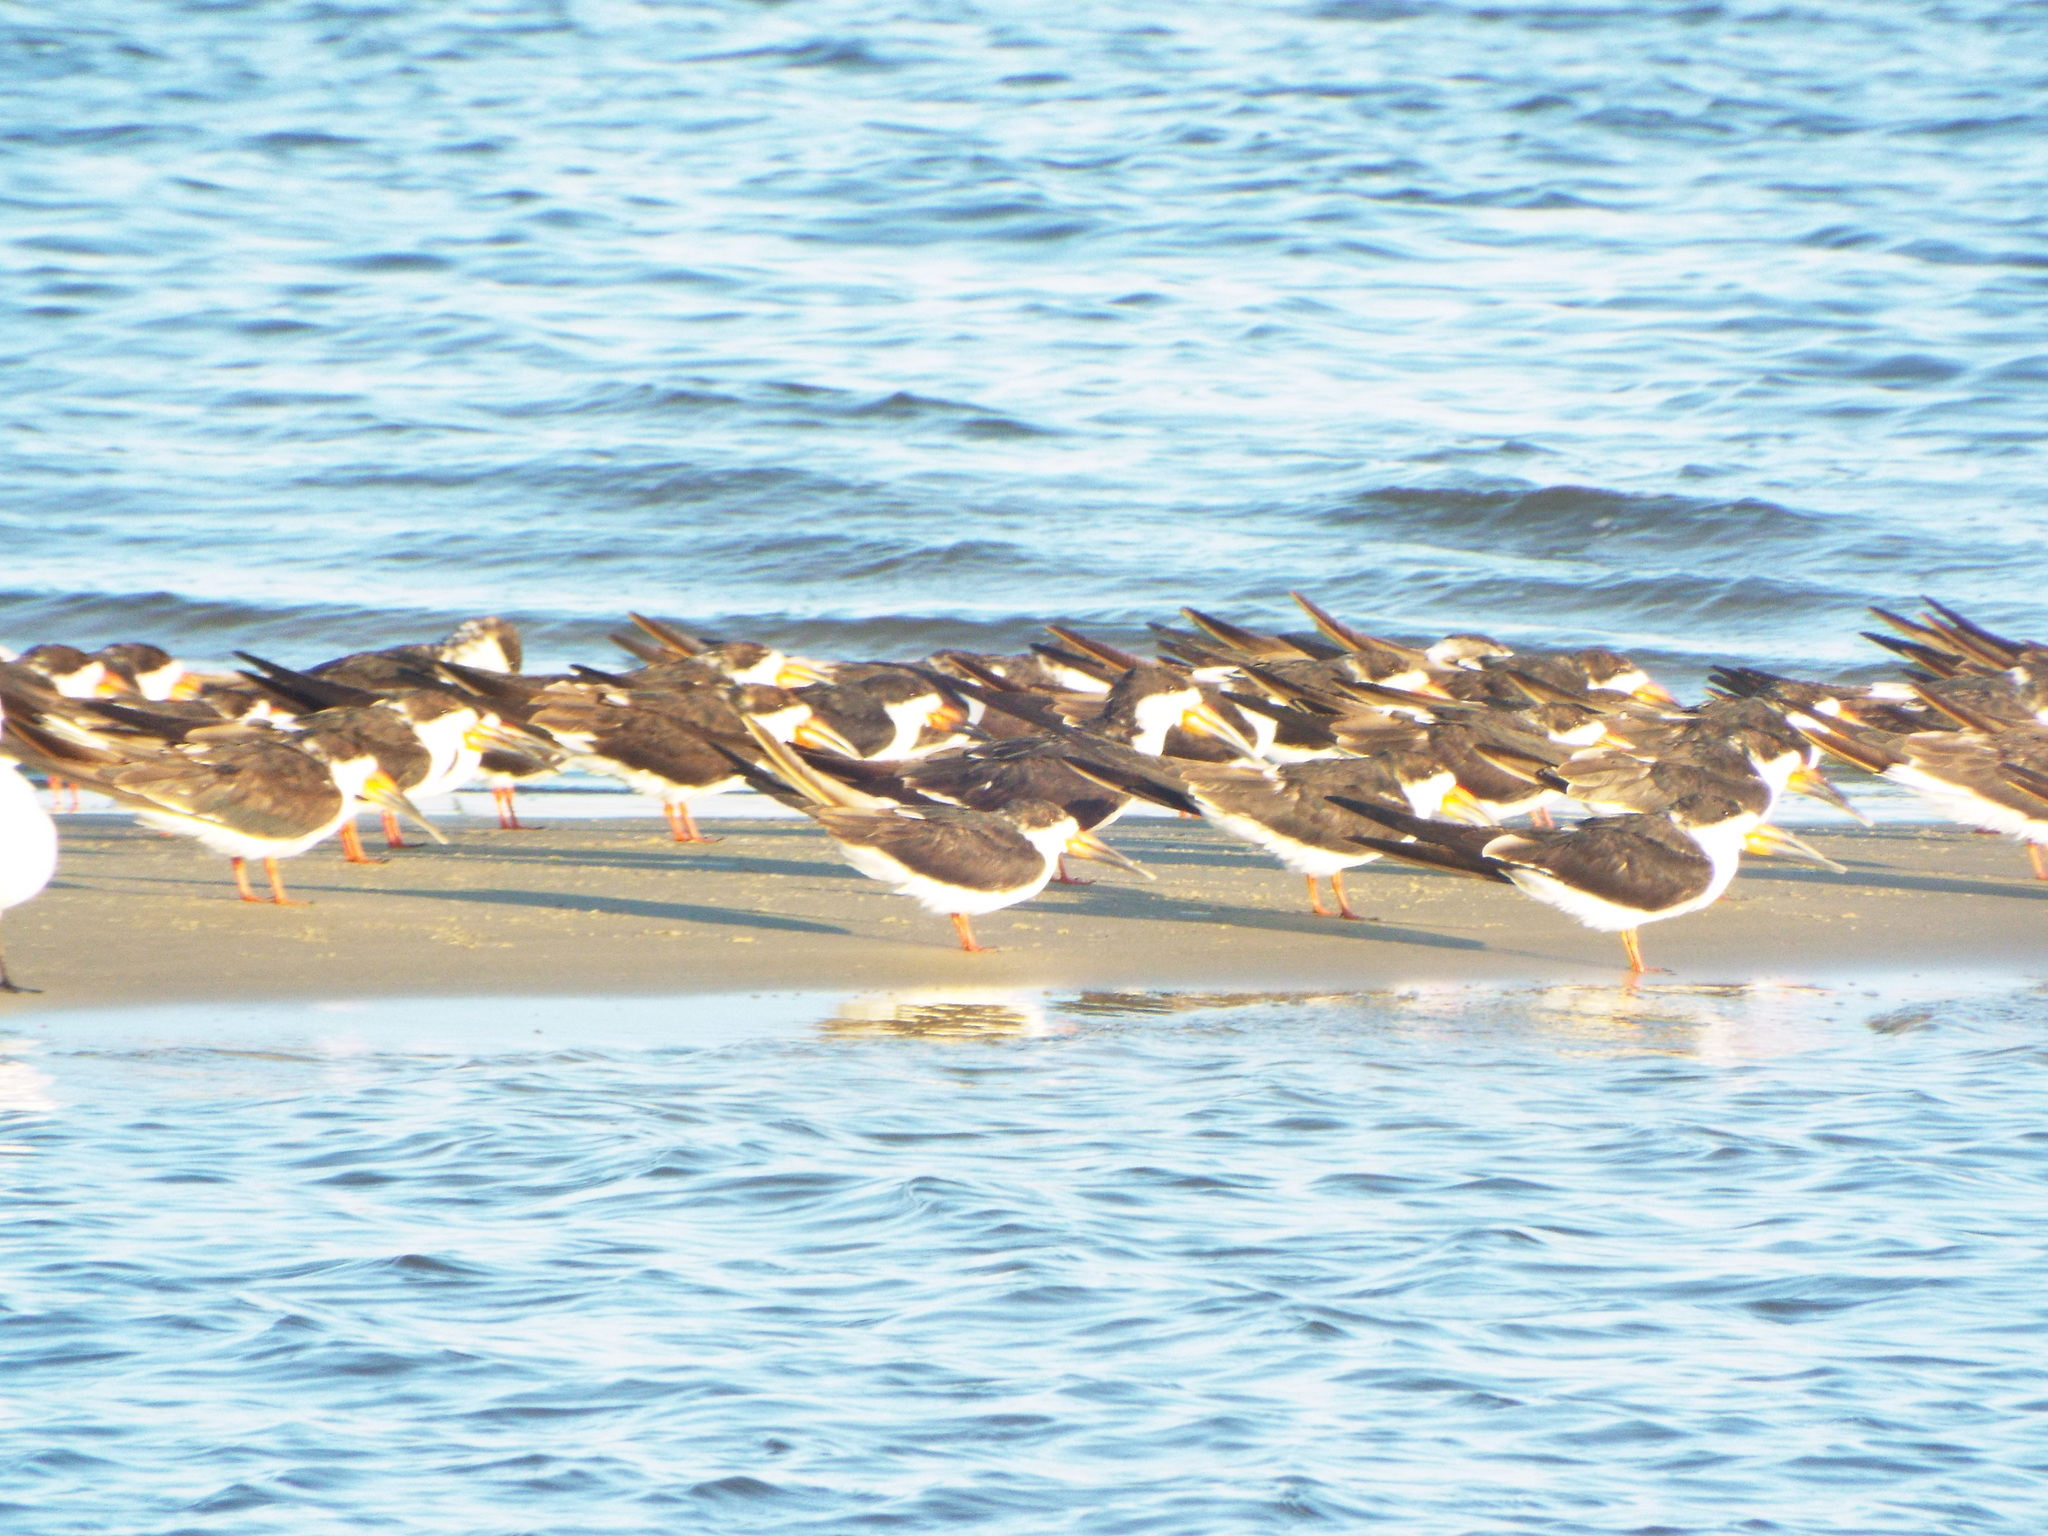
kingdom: Animalia
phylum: Chordata
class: Aves
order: Charadriiformes
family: Laridae
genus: Rynchops
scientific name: Rynchops niger
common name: Black skimmer
